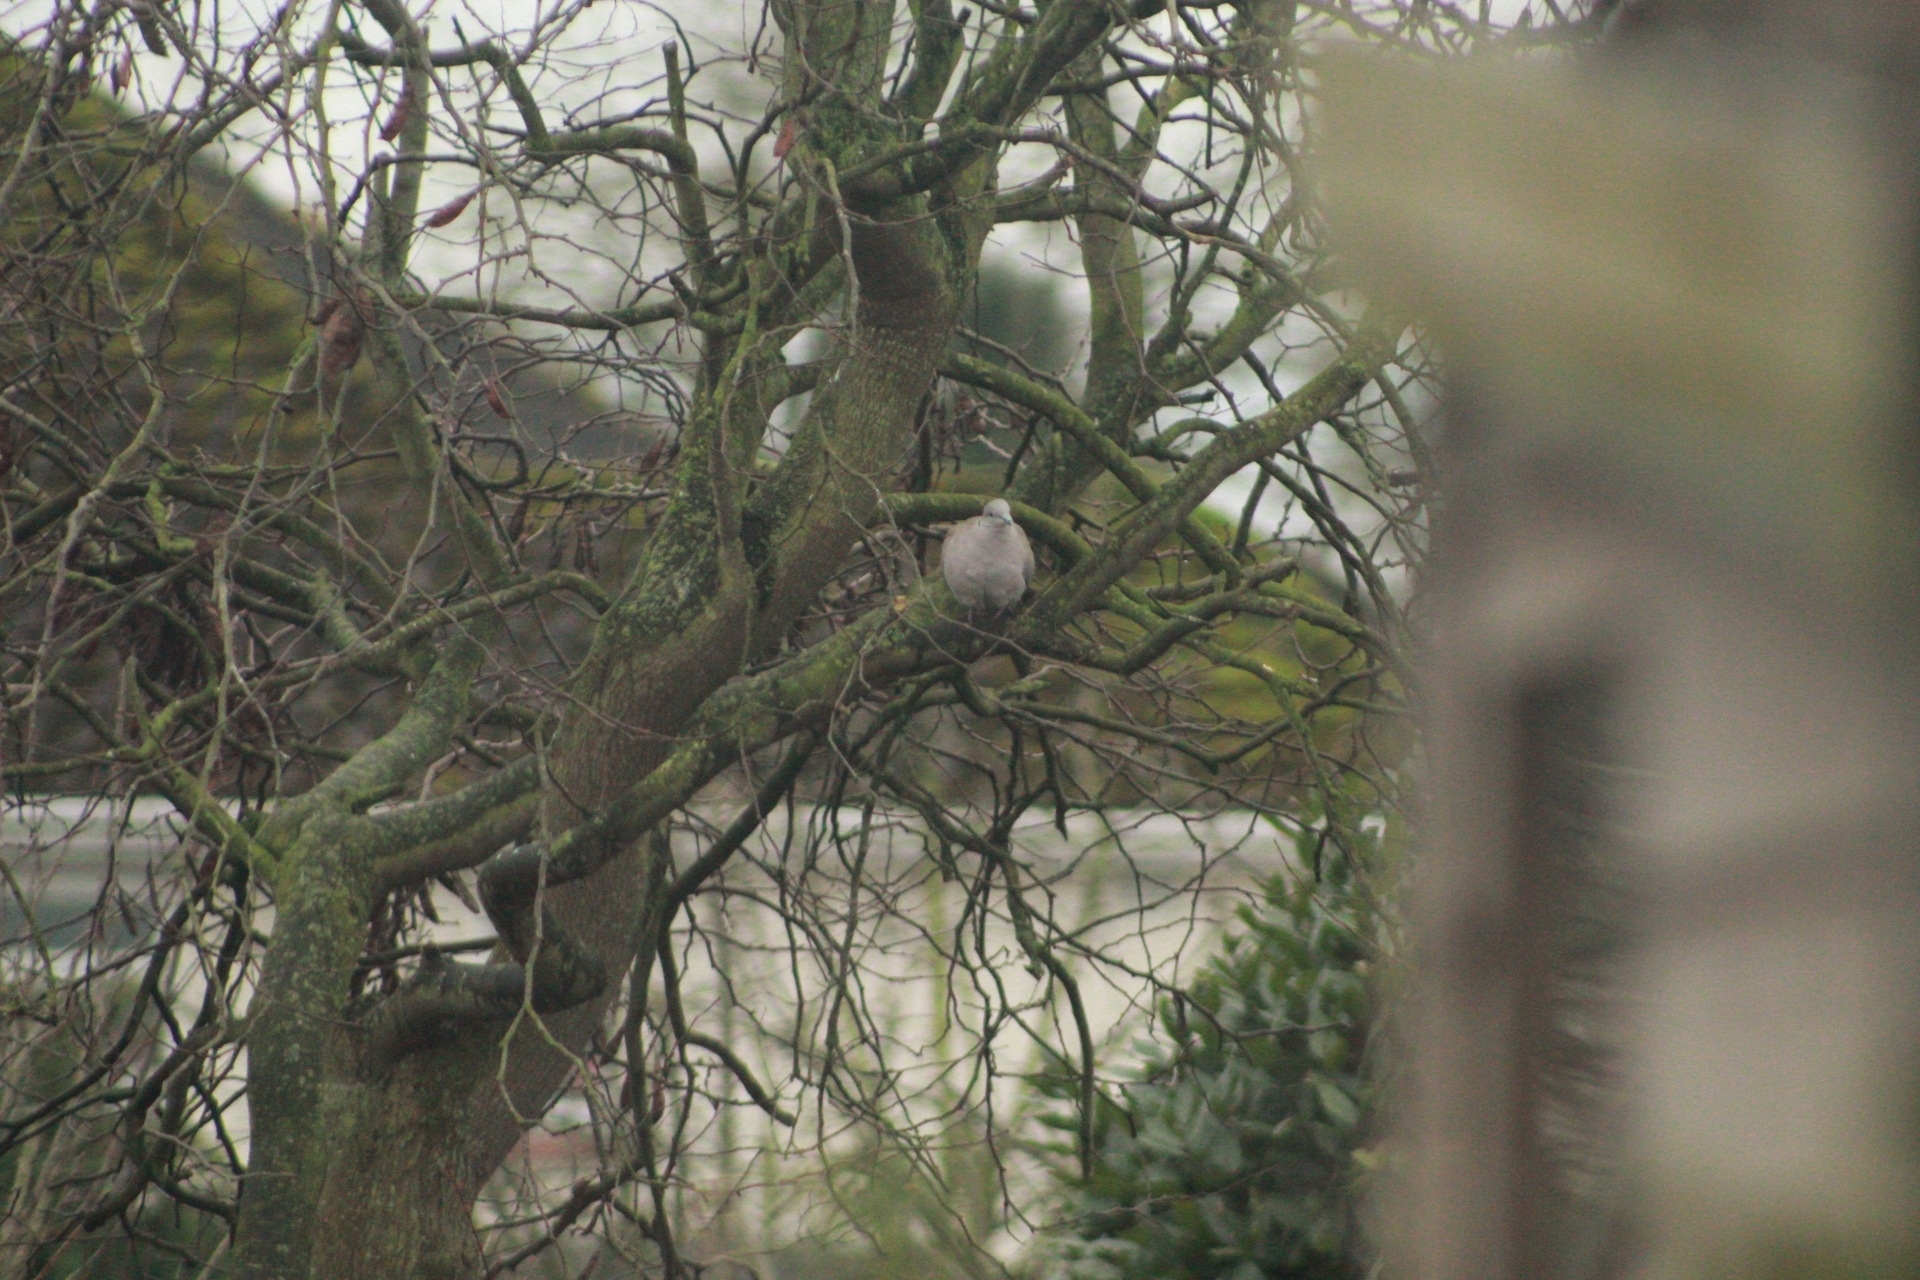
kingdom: Animalia
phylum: Chordata
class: Aves
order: Columbiformes
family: Columbidae
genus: Streptopelia
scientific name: Streptopelia decaocto
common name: Eurasian collared dove
